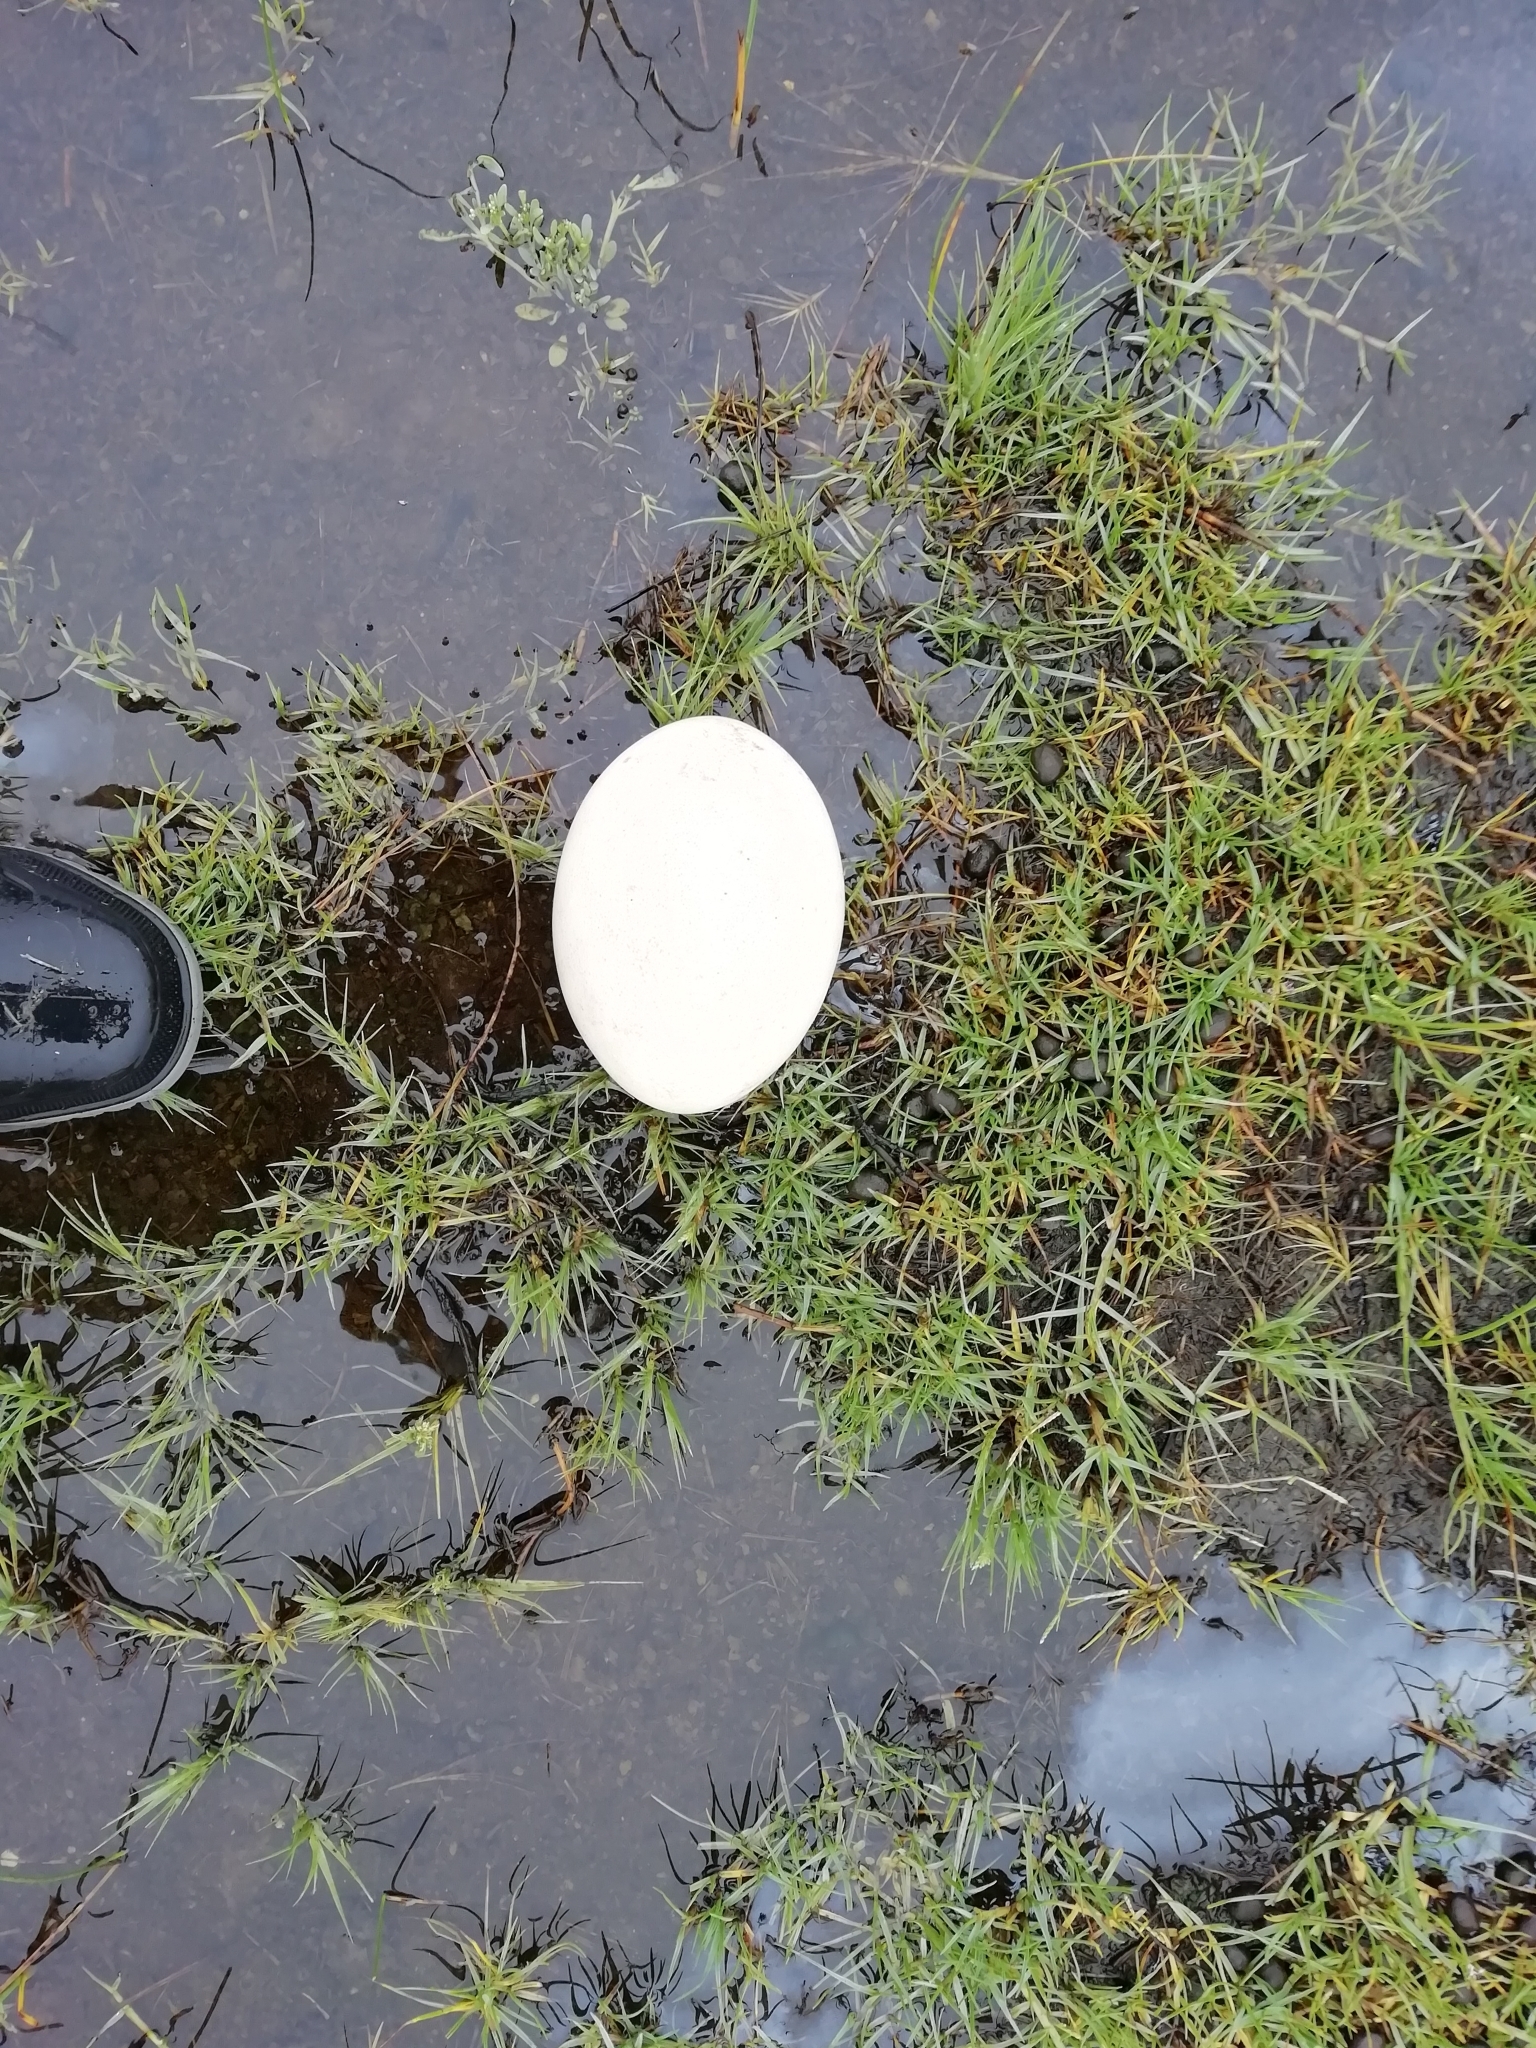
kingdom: Animalia
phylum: Chordata
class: Aves
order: Rheiformes
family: Rheidae
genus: Rhea
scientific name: Rhea americana
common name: Greater rhea
